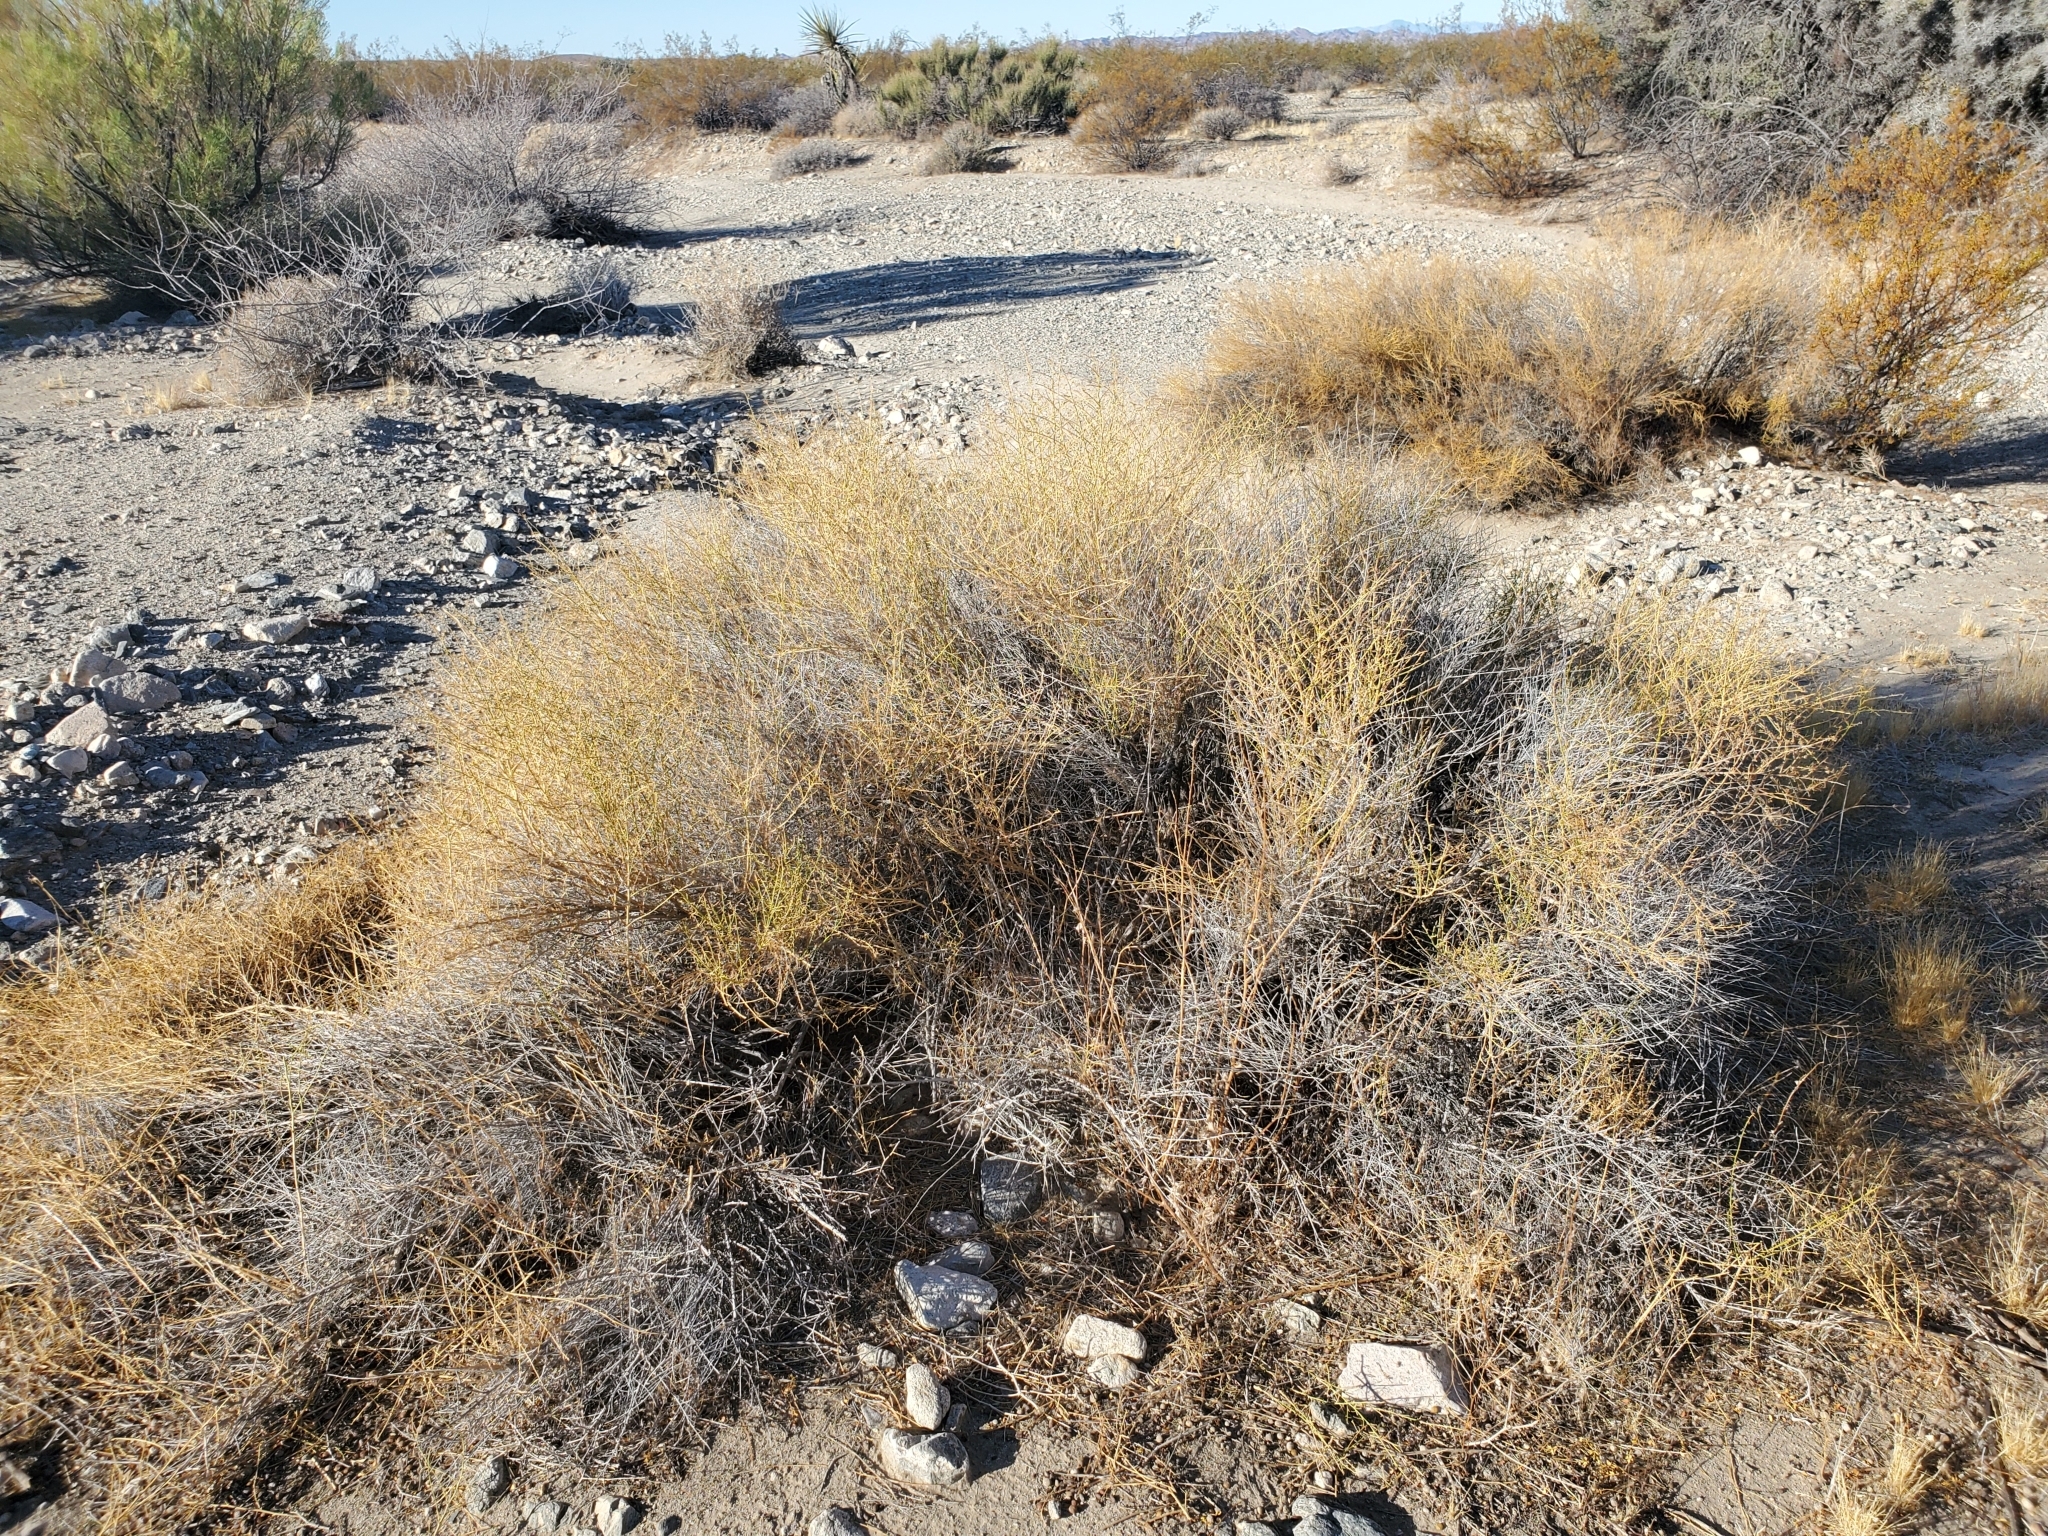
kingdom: Plantae
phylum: Tracheophyta
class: Magnoliopsida
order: Asterales
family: Asteraceae
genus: Ambrosia
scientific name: Ambrosia salsola
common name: Burrobrush
